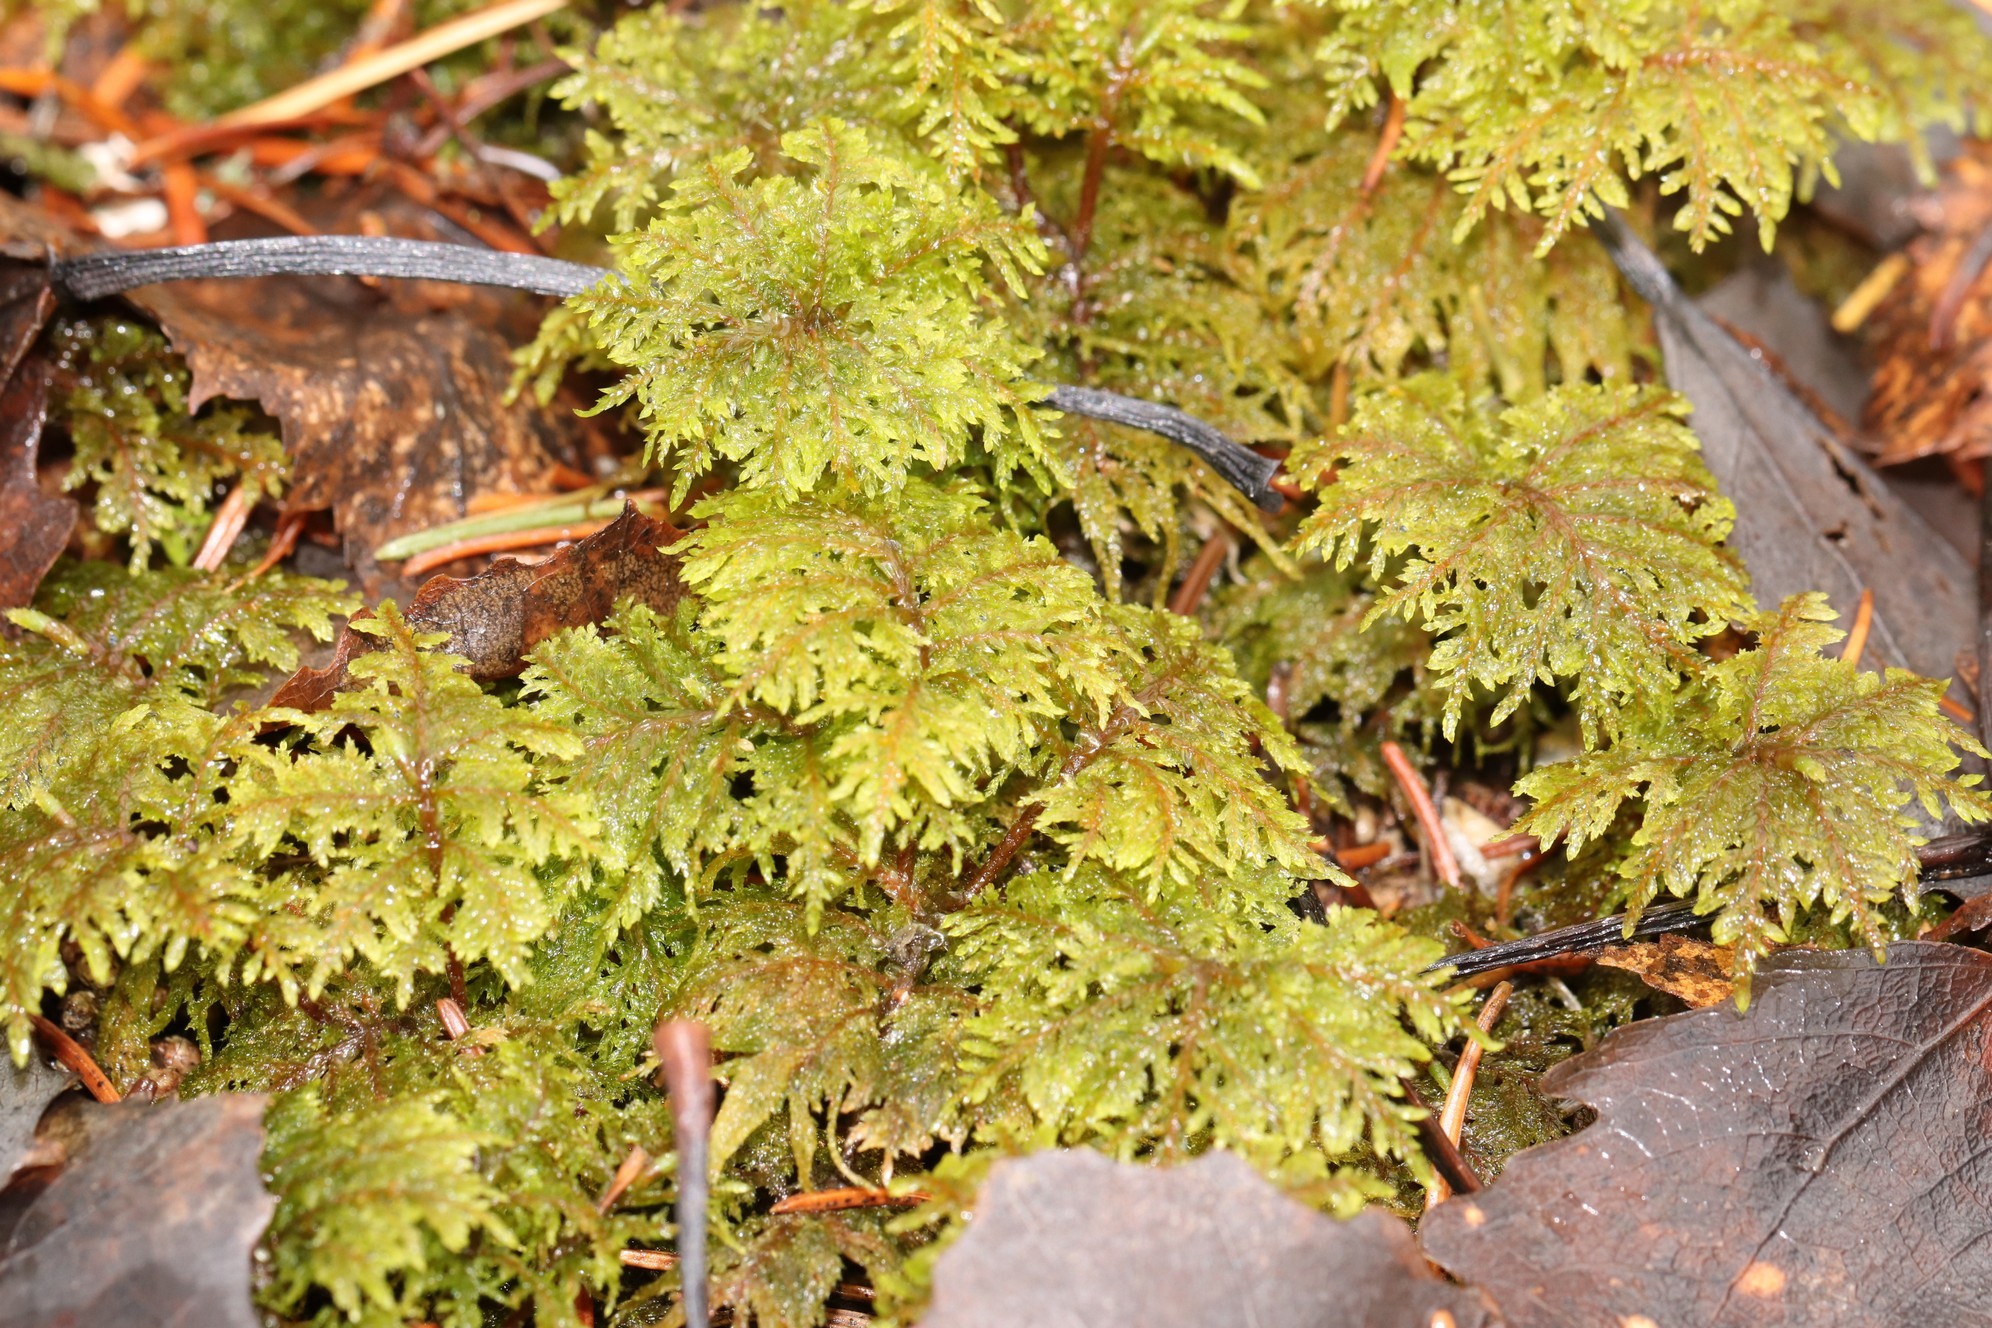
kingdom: Plantae
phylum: Bryophyta
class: Bryopsida
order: Hypnales
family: Hylocomiaceae
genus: Hylocomium
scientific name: Hylocomium splendens
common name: Stairstep moss
